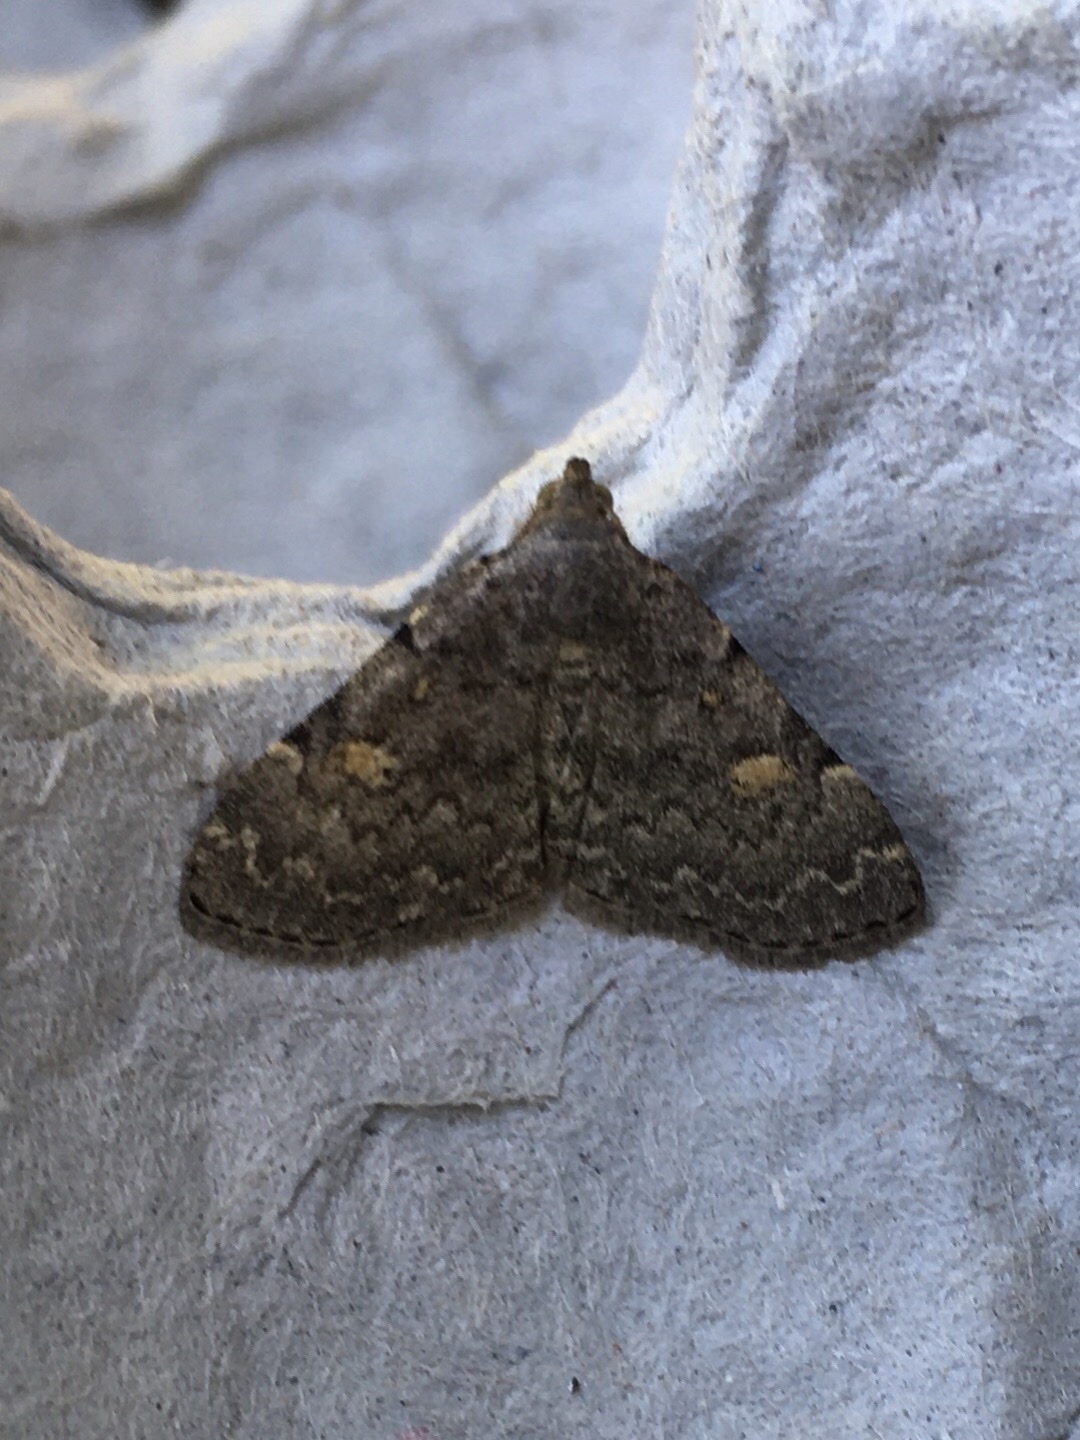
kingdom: Animalia
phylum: Arthropoda
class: Insecta
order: Lepidoptera
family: Erebidae
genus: Idia
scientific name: Idia aemula
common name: Common idia moth
